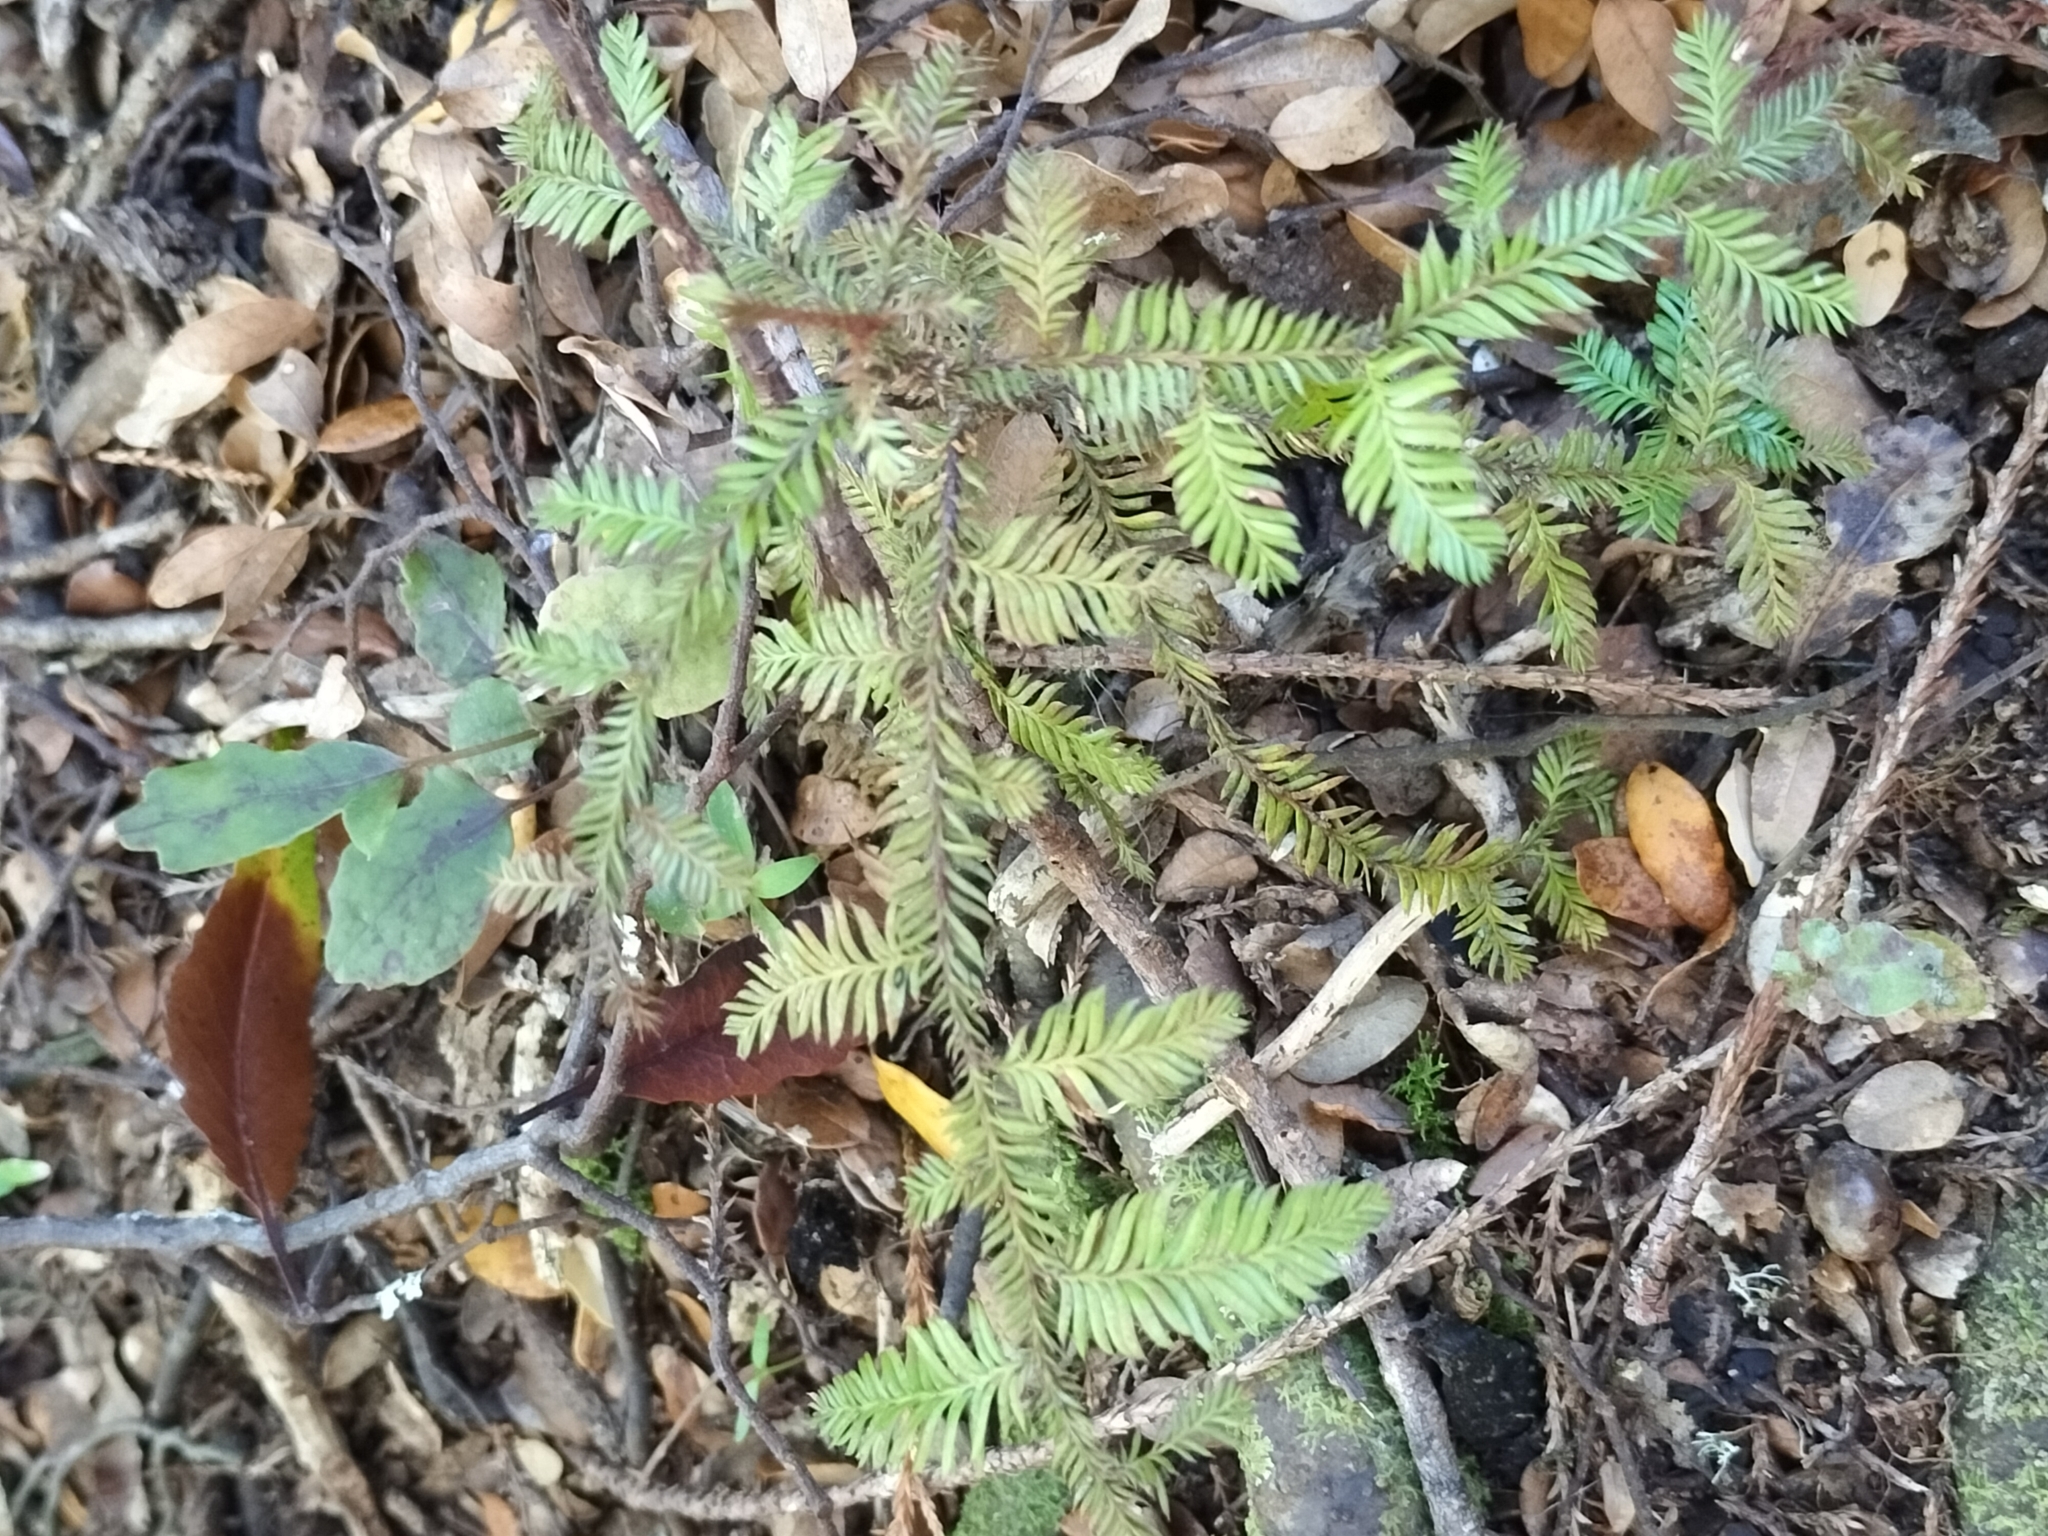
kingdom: Plantae
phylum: Tracheophyta
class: Pinopsida
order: Pinales
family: Podocarpaceae
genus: Dacrycarpus
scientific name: Dacrycarpus dacrydioides
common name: White pine
